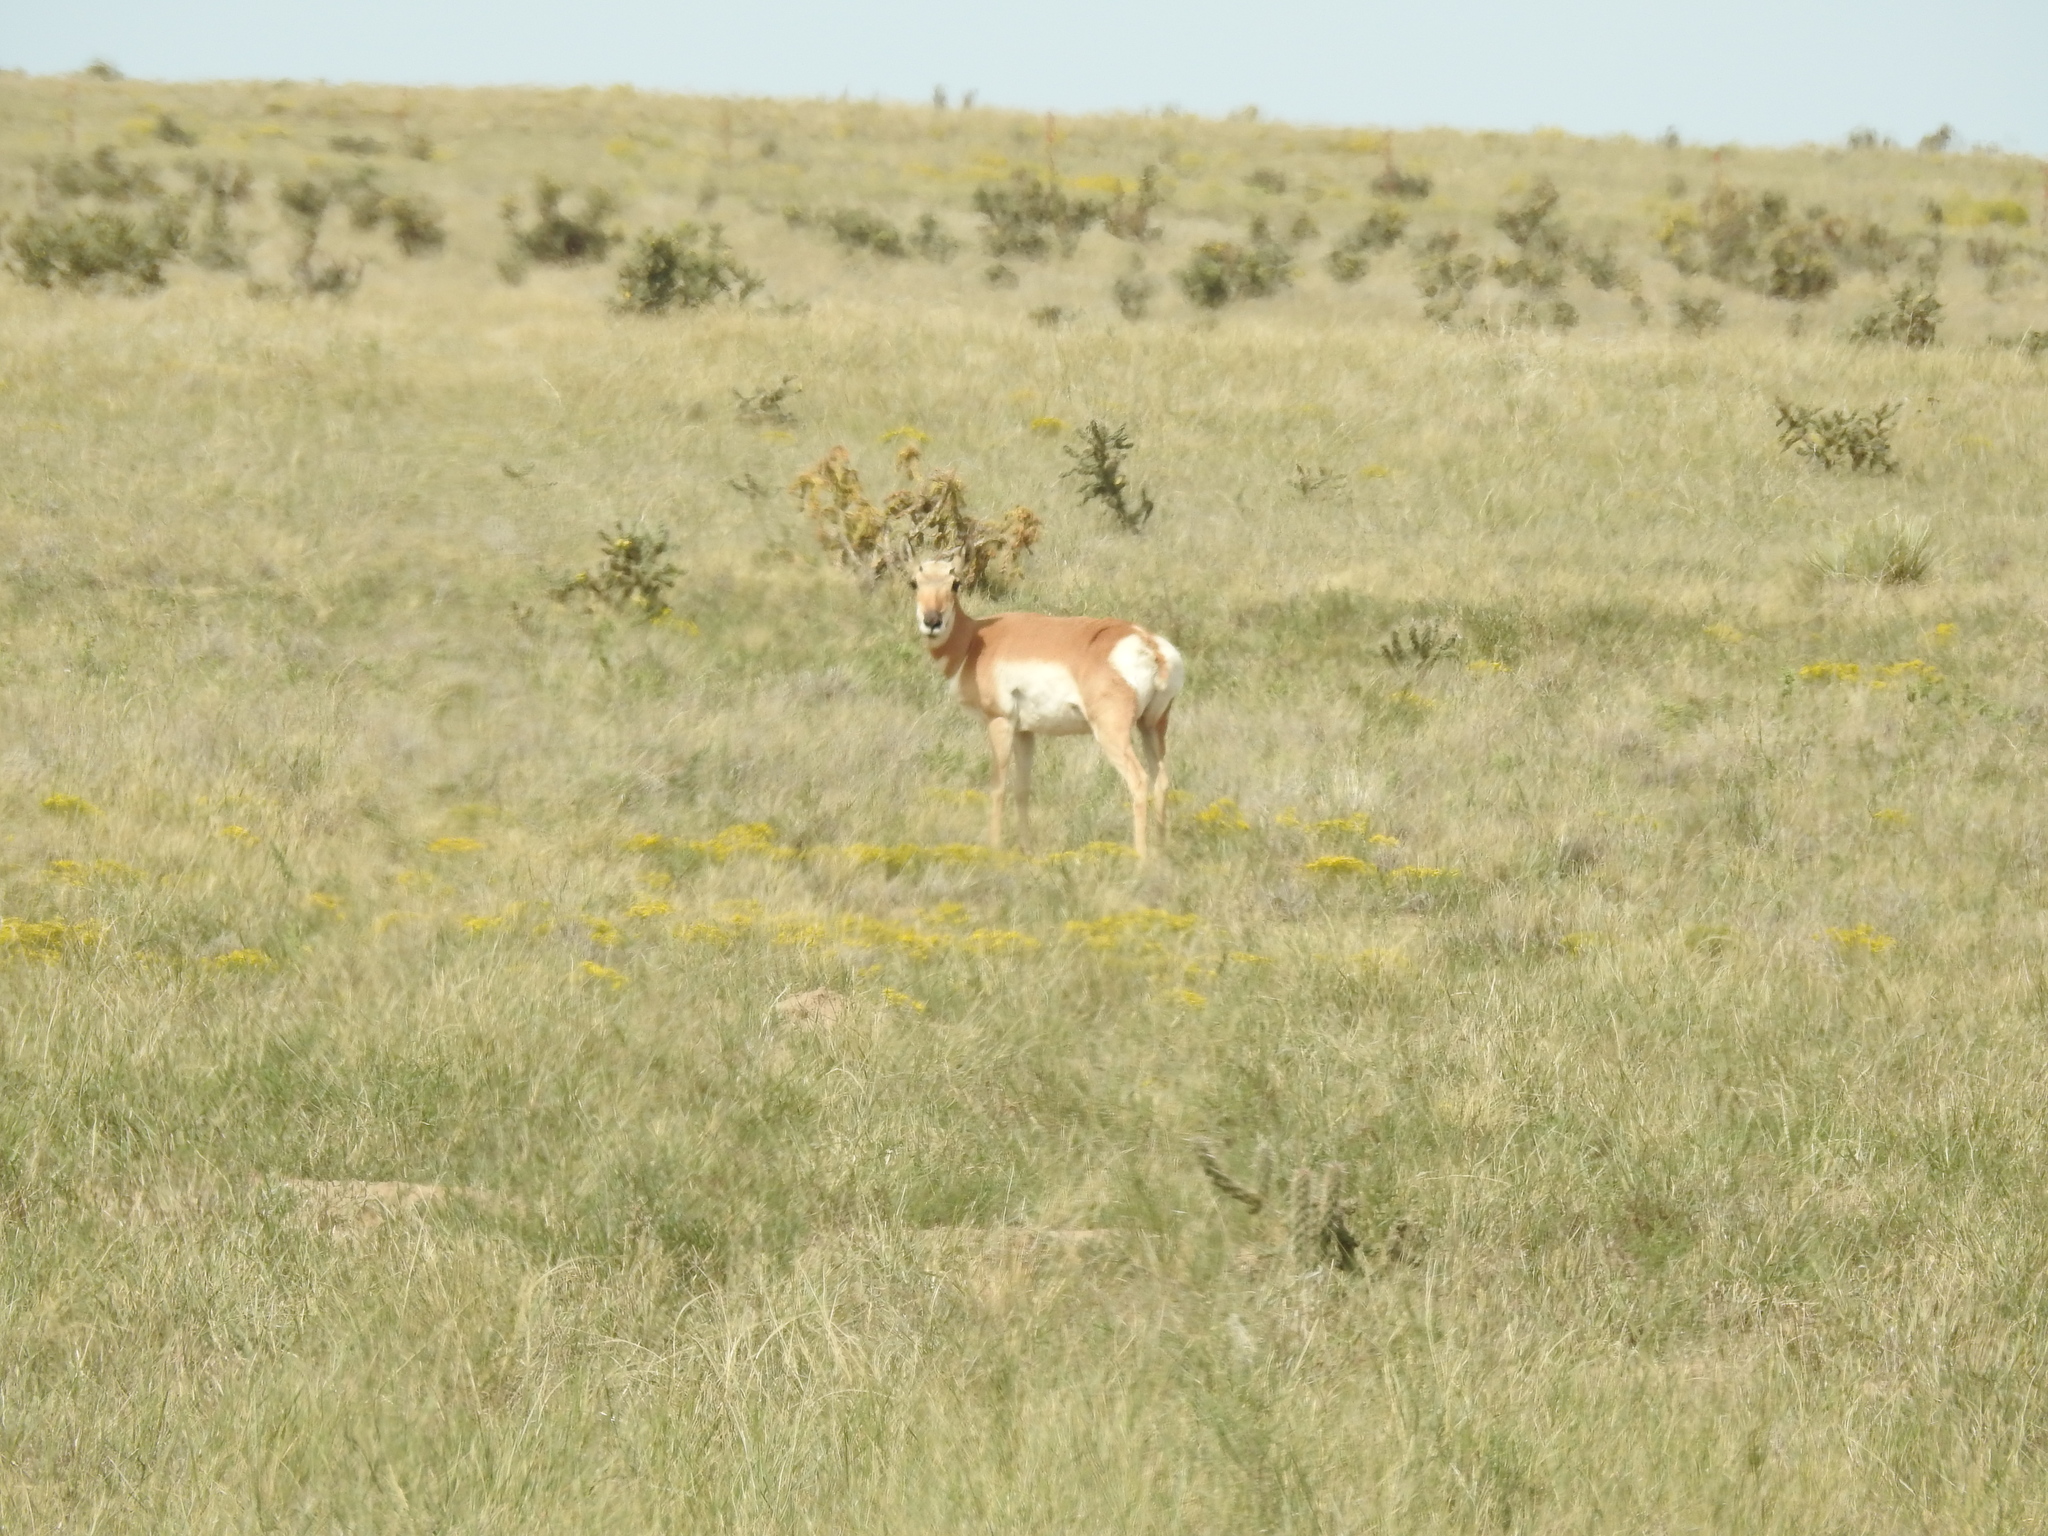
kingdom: Animalia
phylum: Chordata
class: Mammalia
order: Artiodactyla
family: Antilocapridae
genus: Antilocapra
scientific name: Antilocapra americana
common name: Pronghorn
